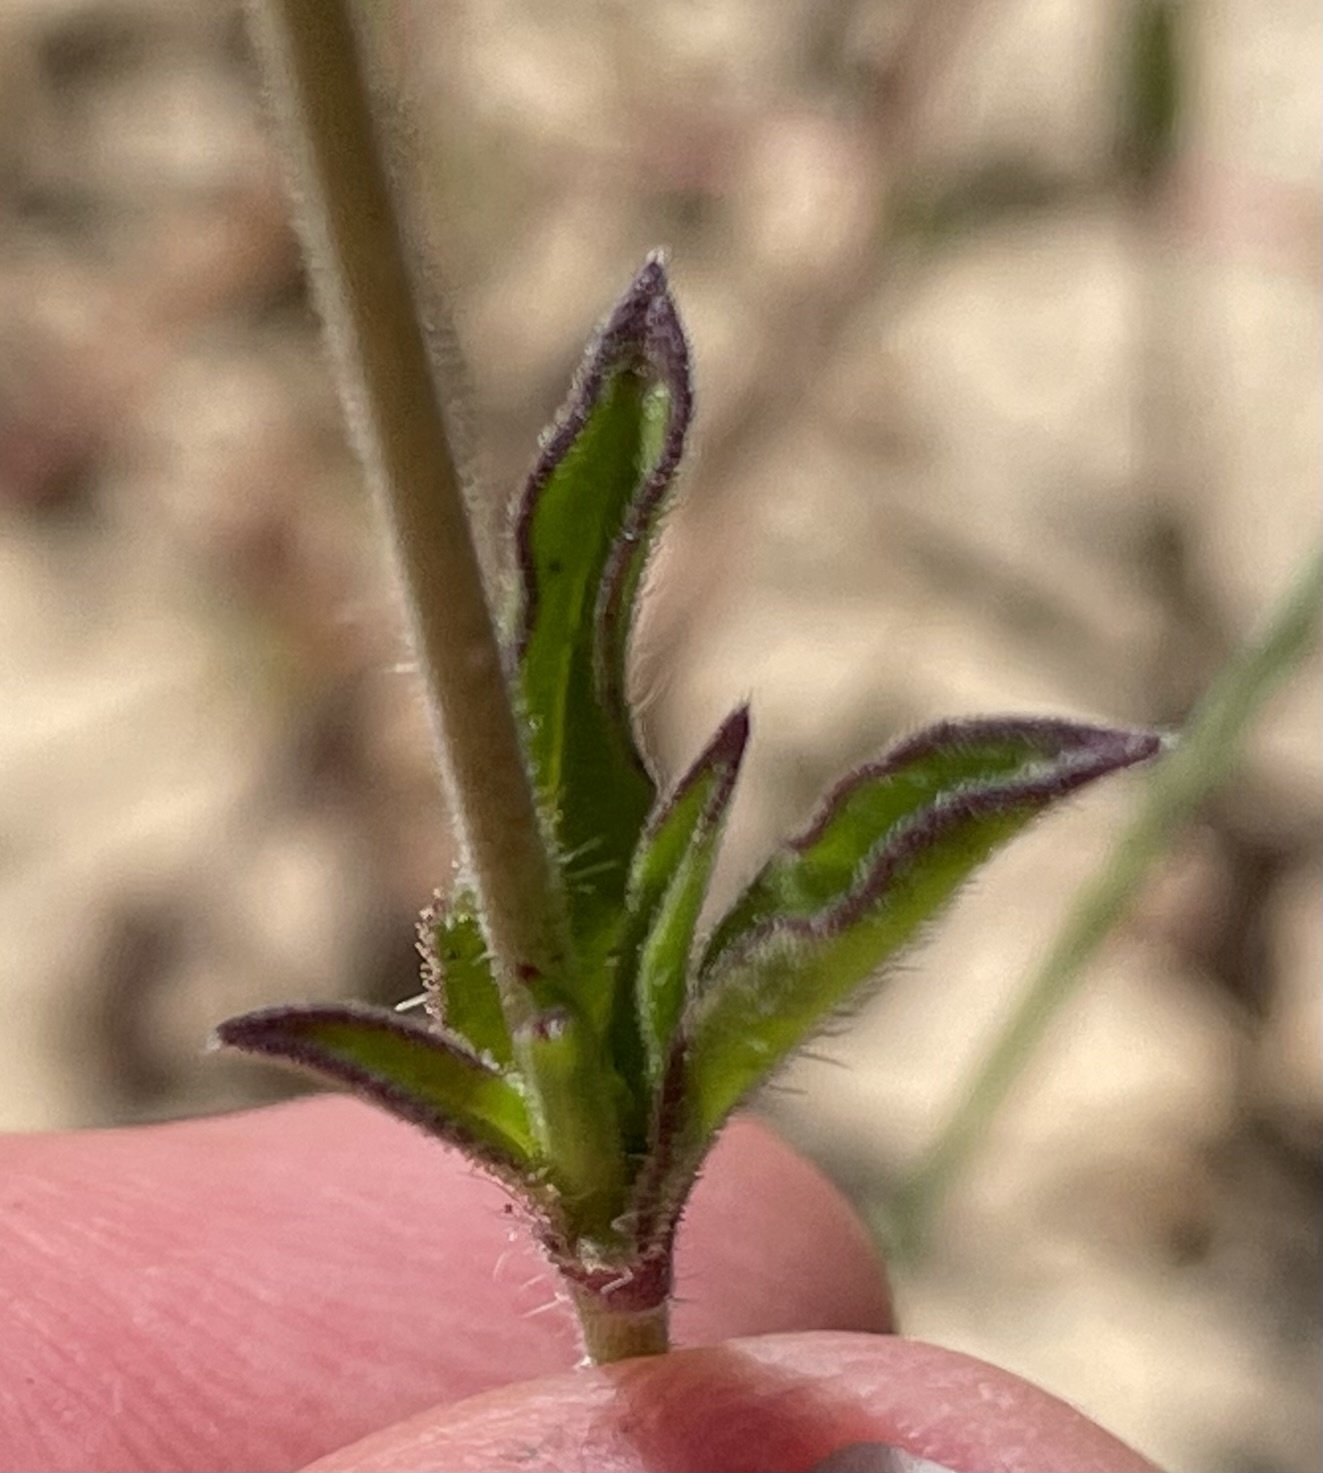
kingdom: Plantae
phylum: Tracheophyta
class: Magnoliopsida
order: Caryophyllales
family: Caryophyllaceae
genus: Silene
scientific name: Silene gallica
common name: Small-flowered catchfly
